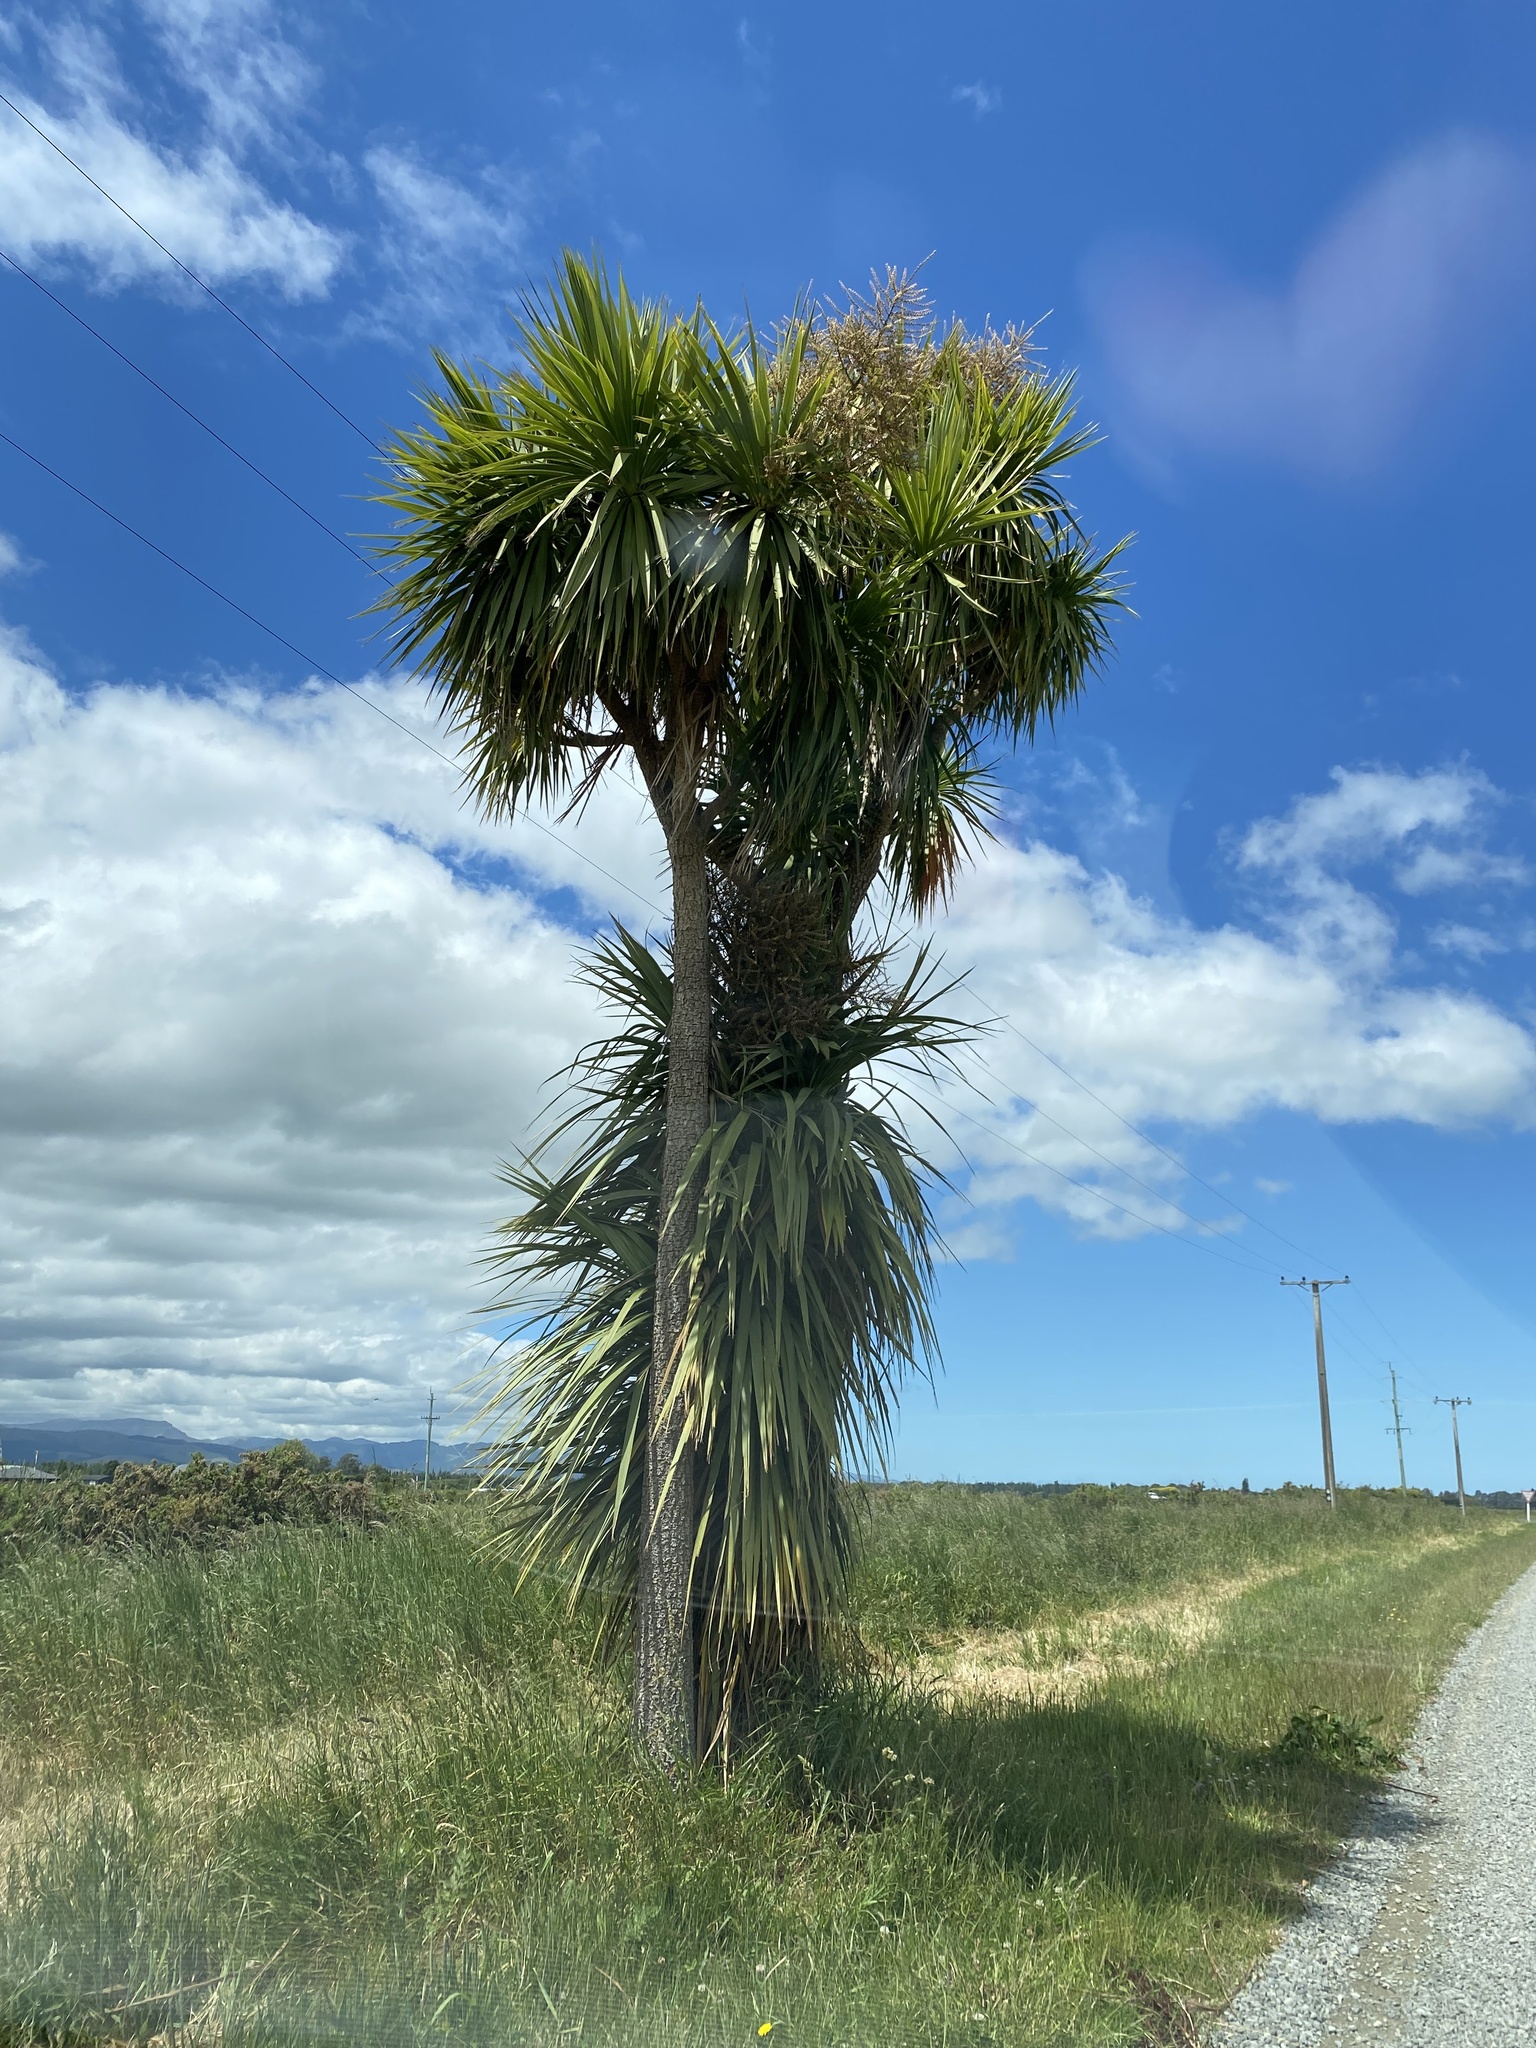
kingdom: Plantae
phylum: Tracheophyta
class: Liliopsida
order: Asparagales
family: Asparagaceae
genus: Cordyline
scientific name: Cordyline australis
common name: Cabbage-palm
